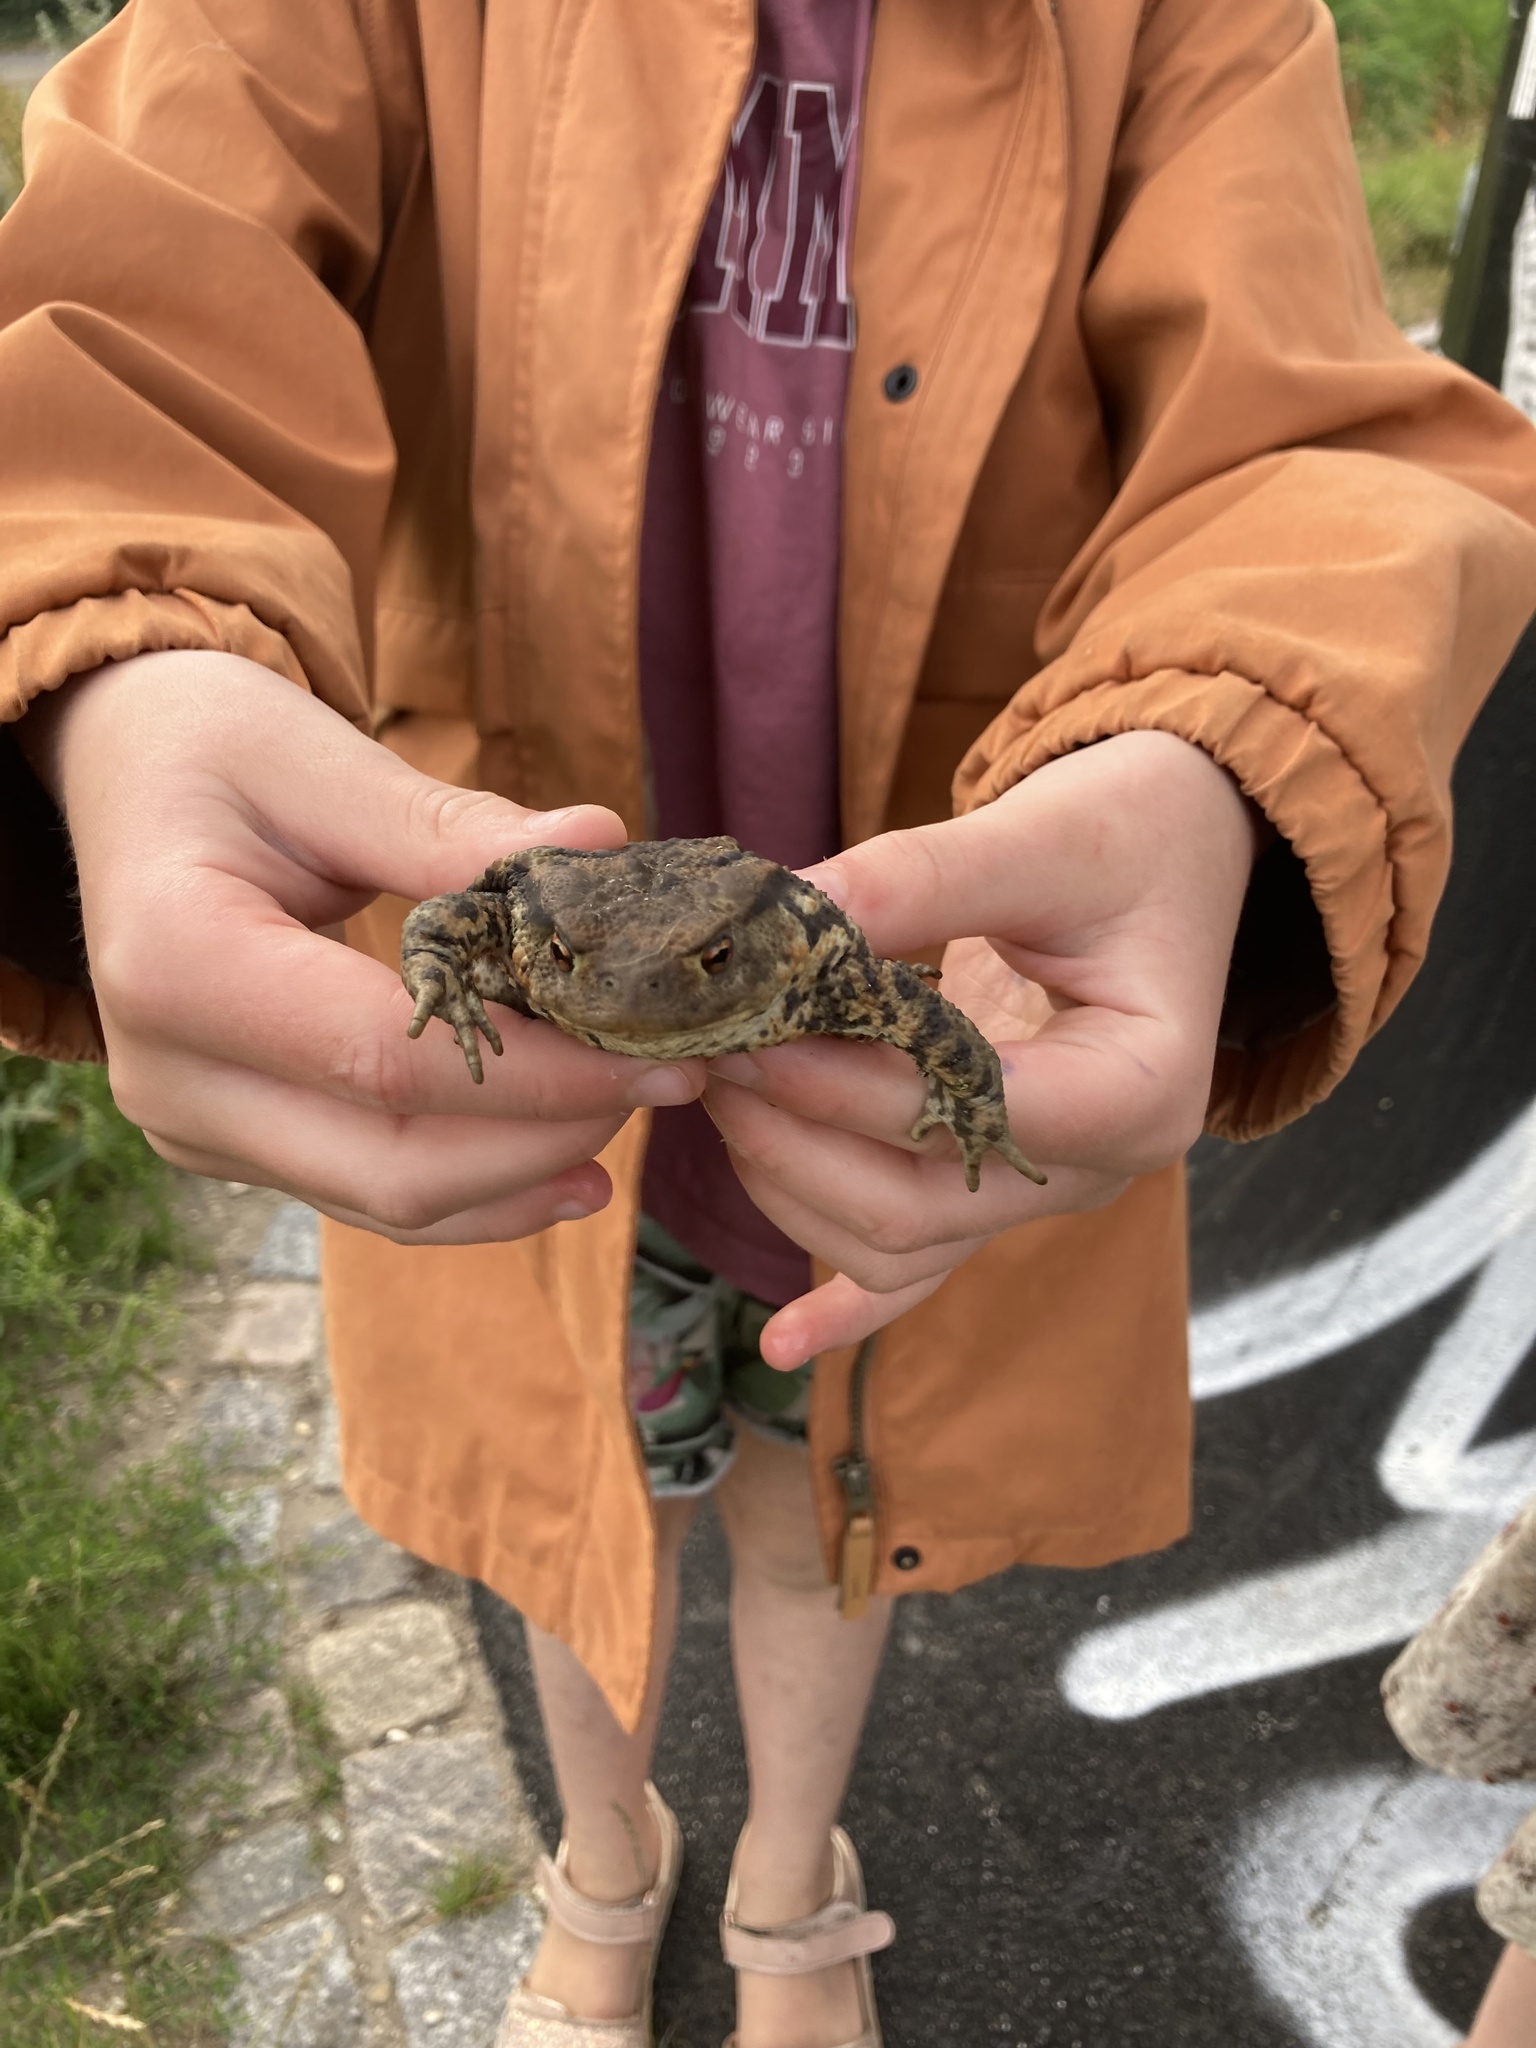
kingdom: Animalia
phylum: Chordata
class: Amphibia
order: Anura
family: Bufonidae
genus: Bufo
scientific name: Bufo bufo
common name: Common toad
